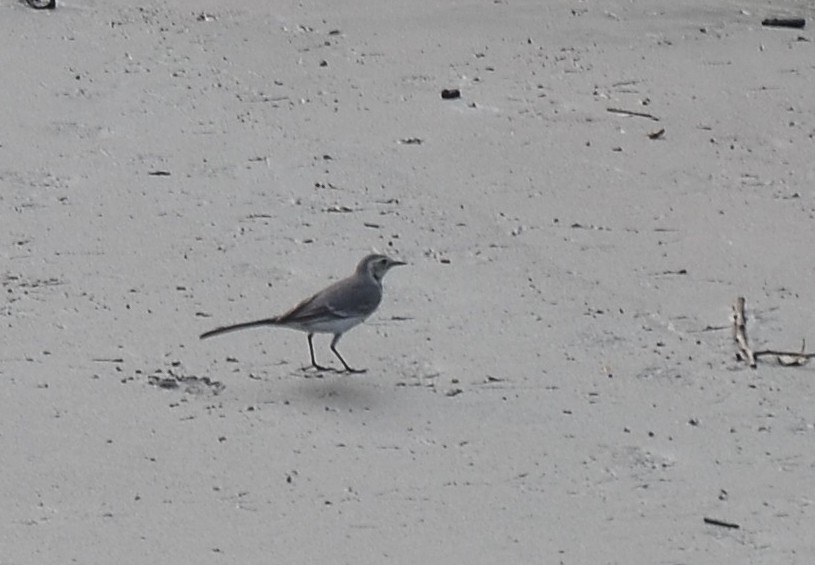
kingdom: Animalia
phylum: Chordata
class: Aves
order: Passeriformes
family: Motacillidae
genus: Motacilla
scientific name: Motacilla alba
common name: White wagtail
